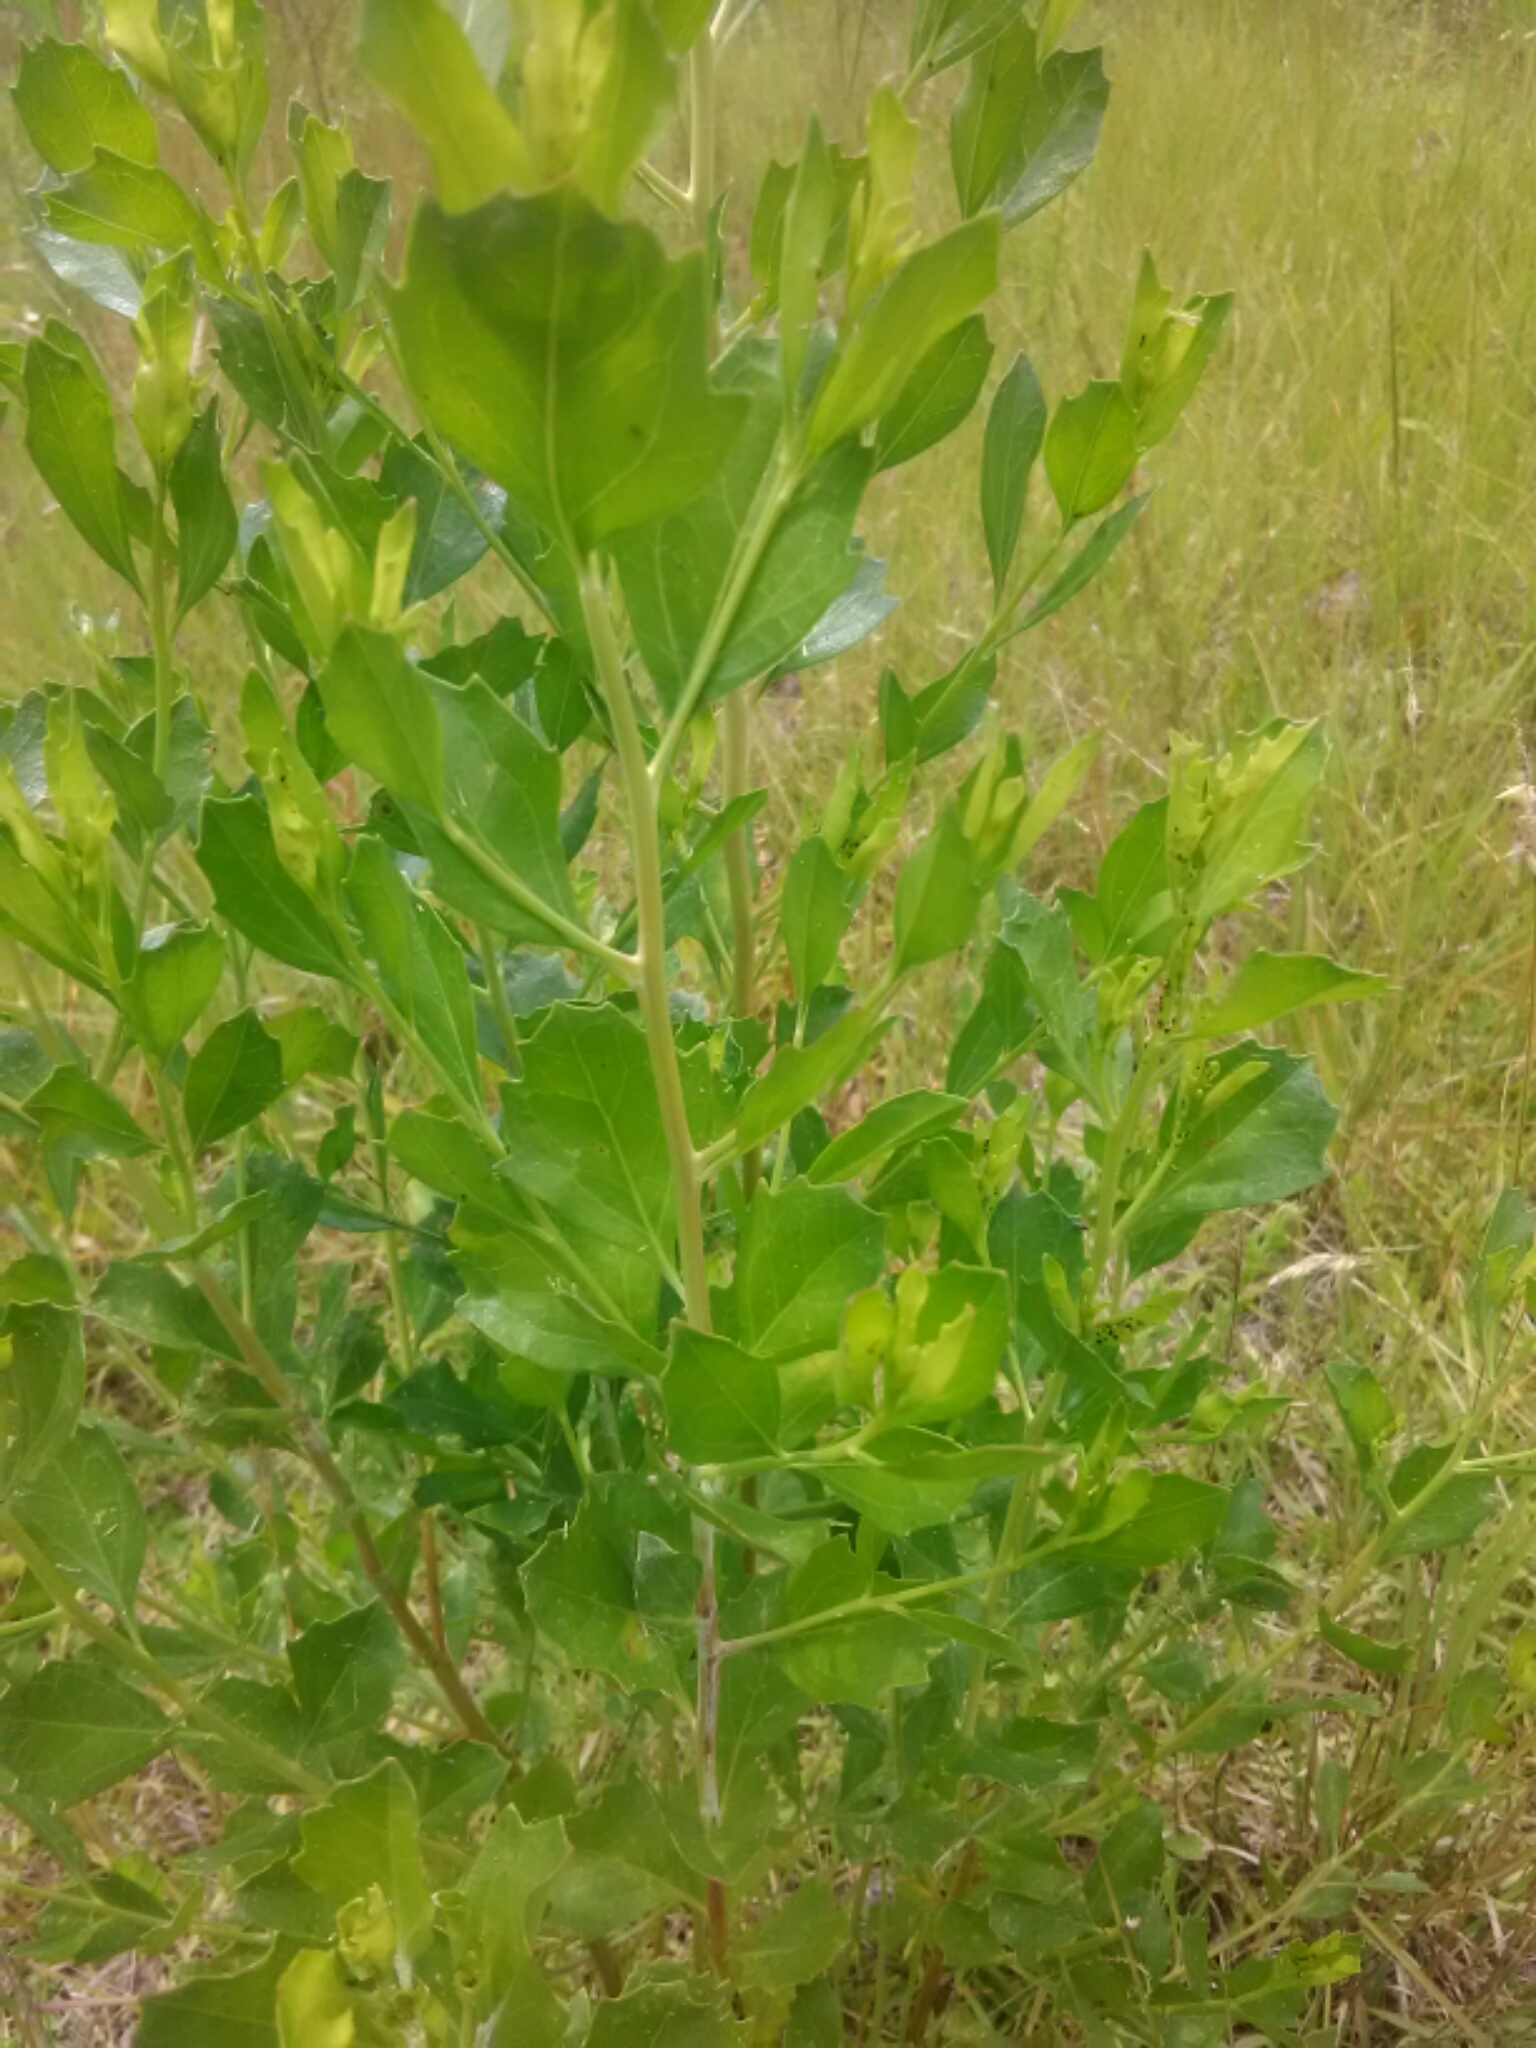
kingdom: Plantae
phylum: Tracheophyta
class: Magnoliopsida
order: Asterales
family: Asteraceae
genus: Baccharis
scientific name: Baccharis halimifolia
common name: Eastern baccharis
